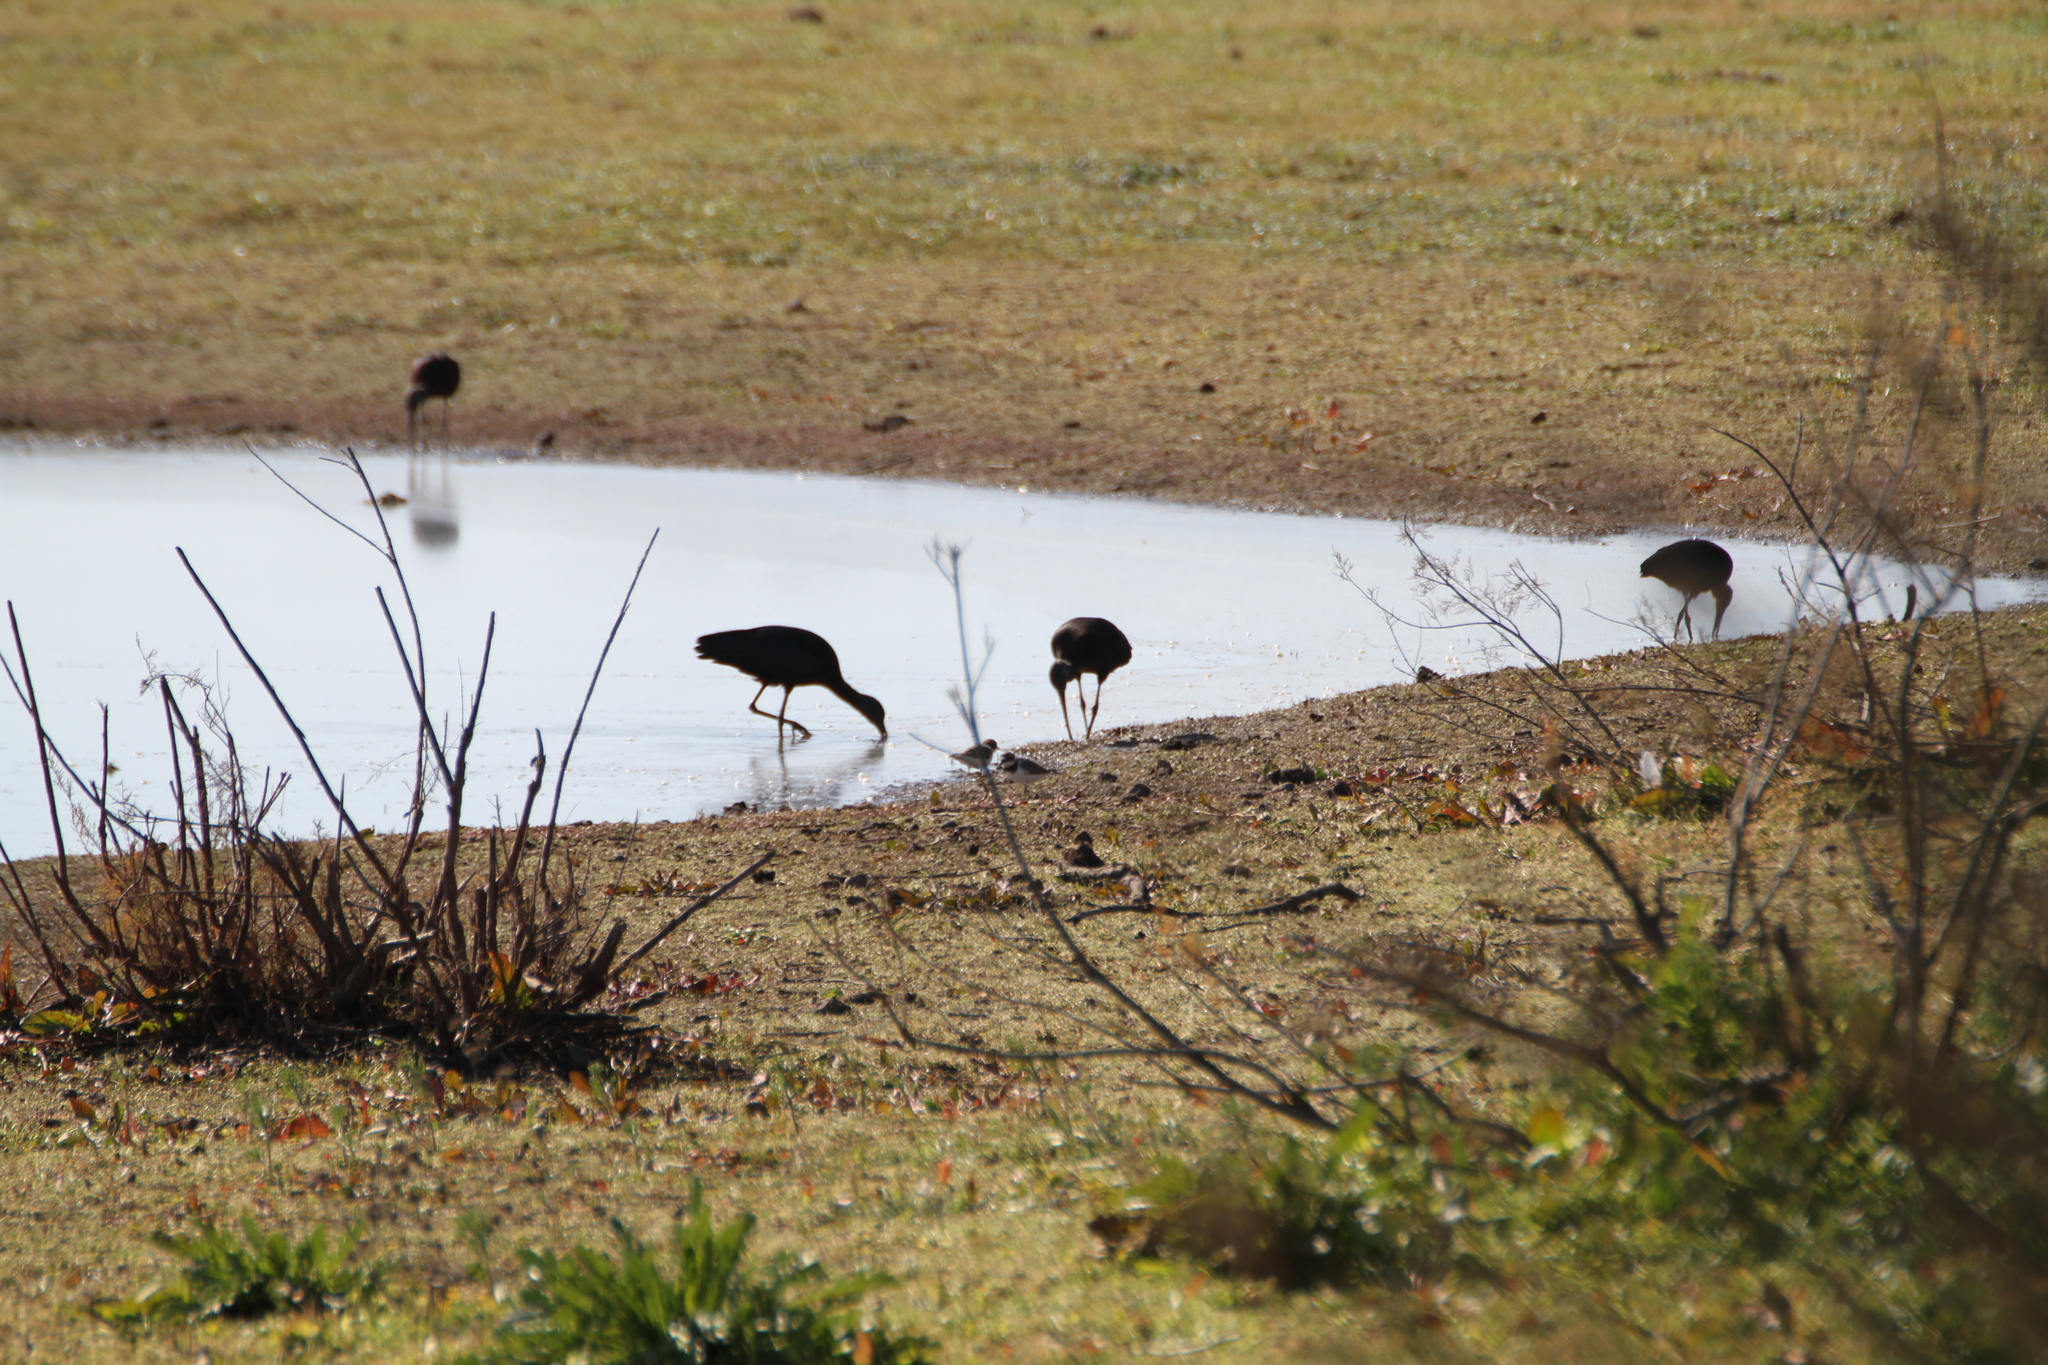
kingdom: Animalia
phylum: Chordata
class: Aves
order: Pelecaniformes
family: Threskiornithidae
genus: Plegadis
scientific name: Plegadis falcinellus
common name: Glossy ibis
